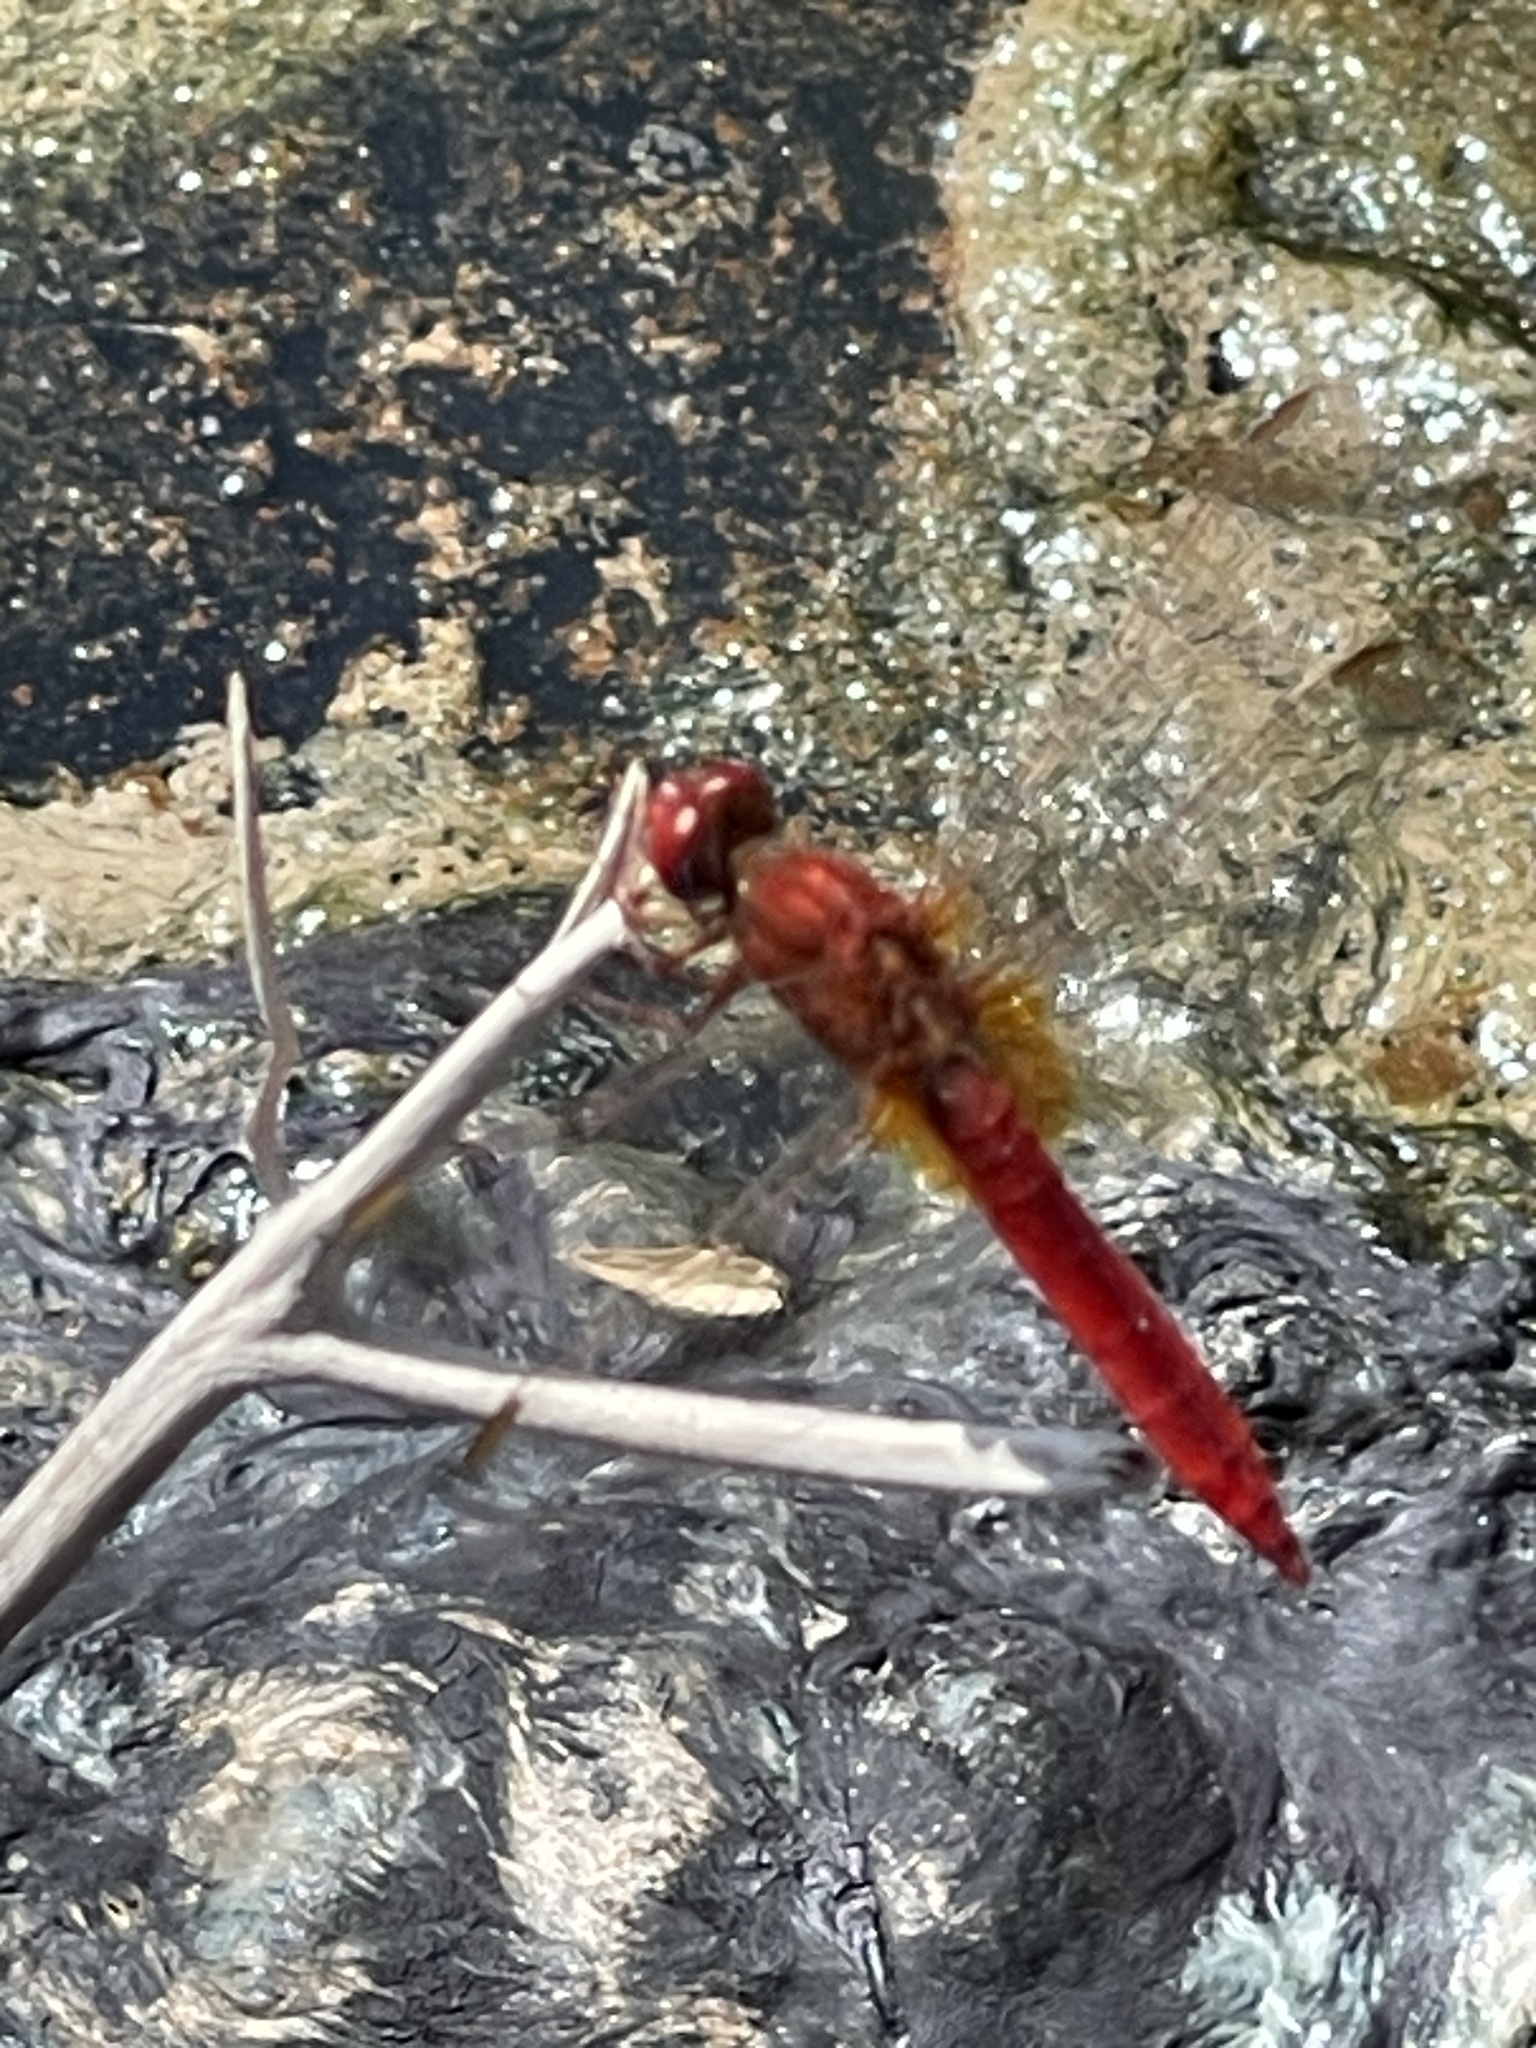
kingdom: Animalia
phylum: Arthropoda
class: Insecta
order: Odonata
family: Libellulidae
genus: Crocothemis
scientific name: Crocothemis erythraea
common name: Scarlet dragonfly
